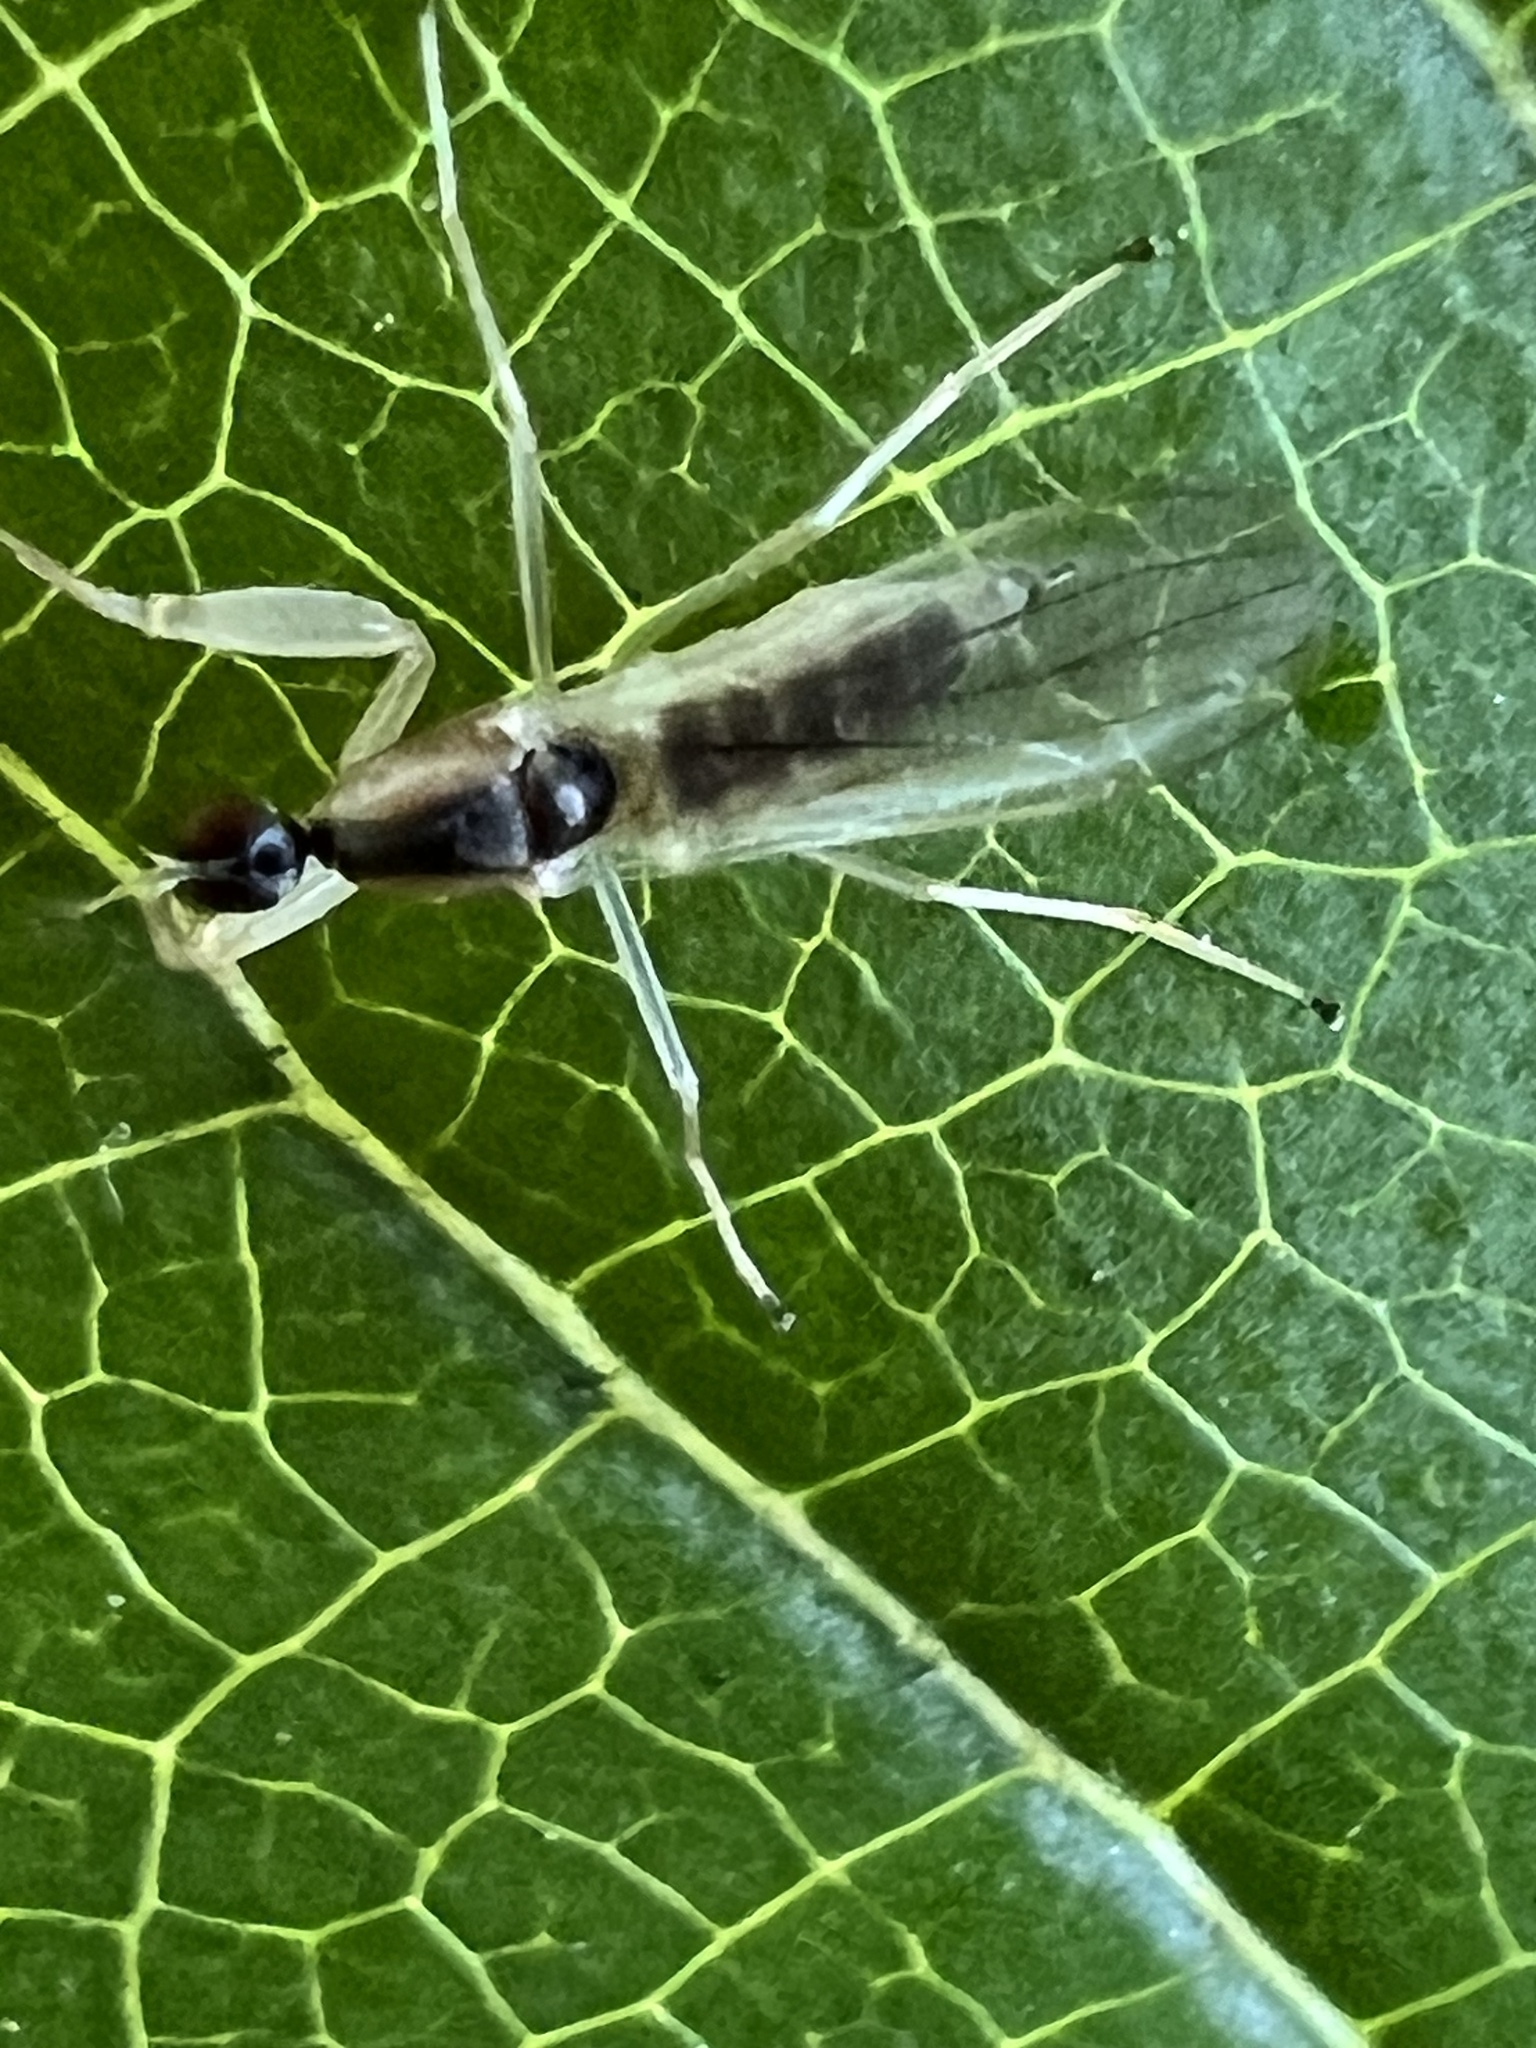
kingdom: Animalia
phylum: Arthropoda
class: Insecta
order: Diptera
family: Empididae
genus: Hemerodromia
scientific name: Hemerodromia superstitiosa
